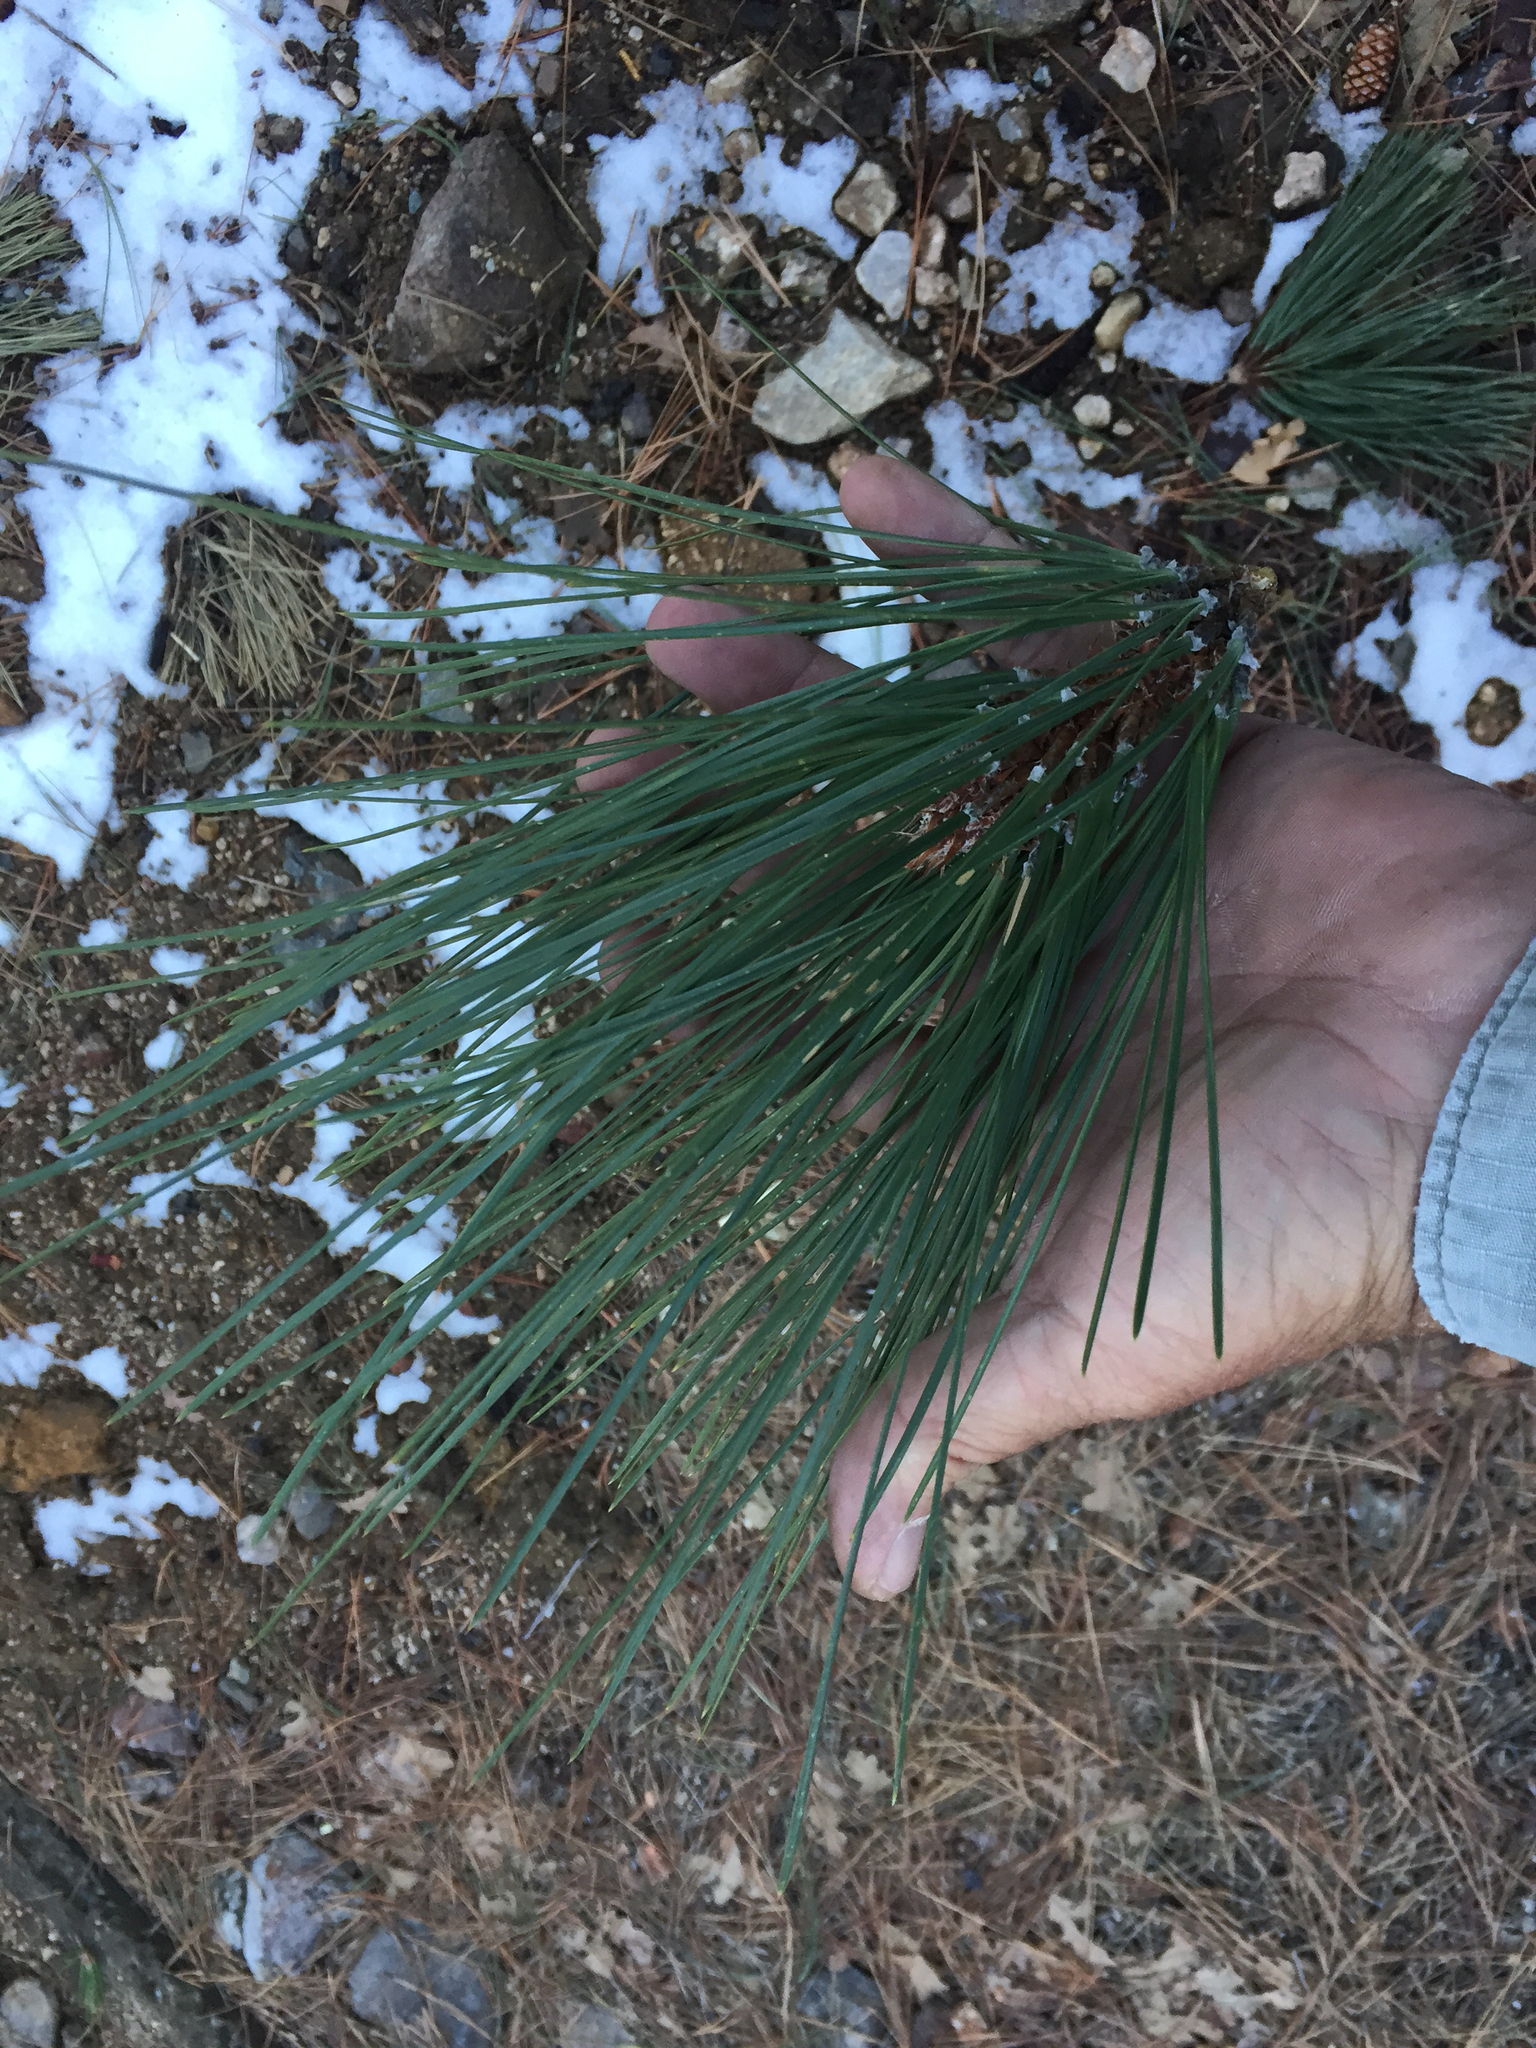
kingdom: Plantae
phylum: Tracheophyta
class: Pinopsida
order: Pinales
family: Pinaceae
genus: Pinus
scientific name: Pinus ponderosa
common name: Western yellow-pine
